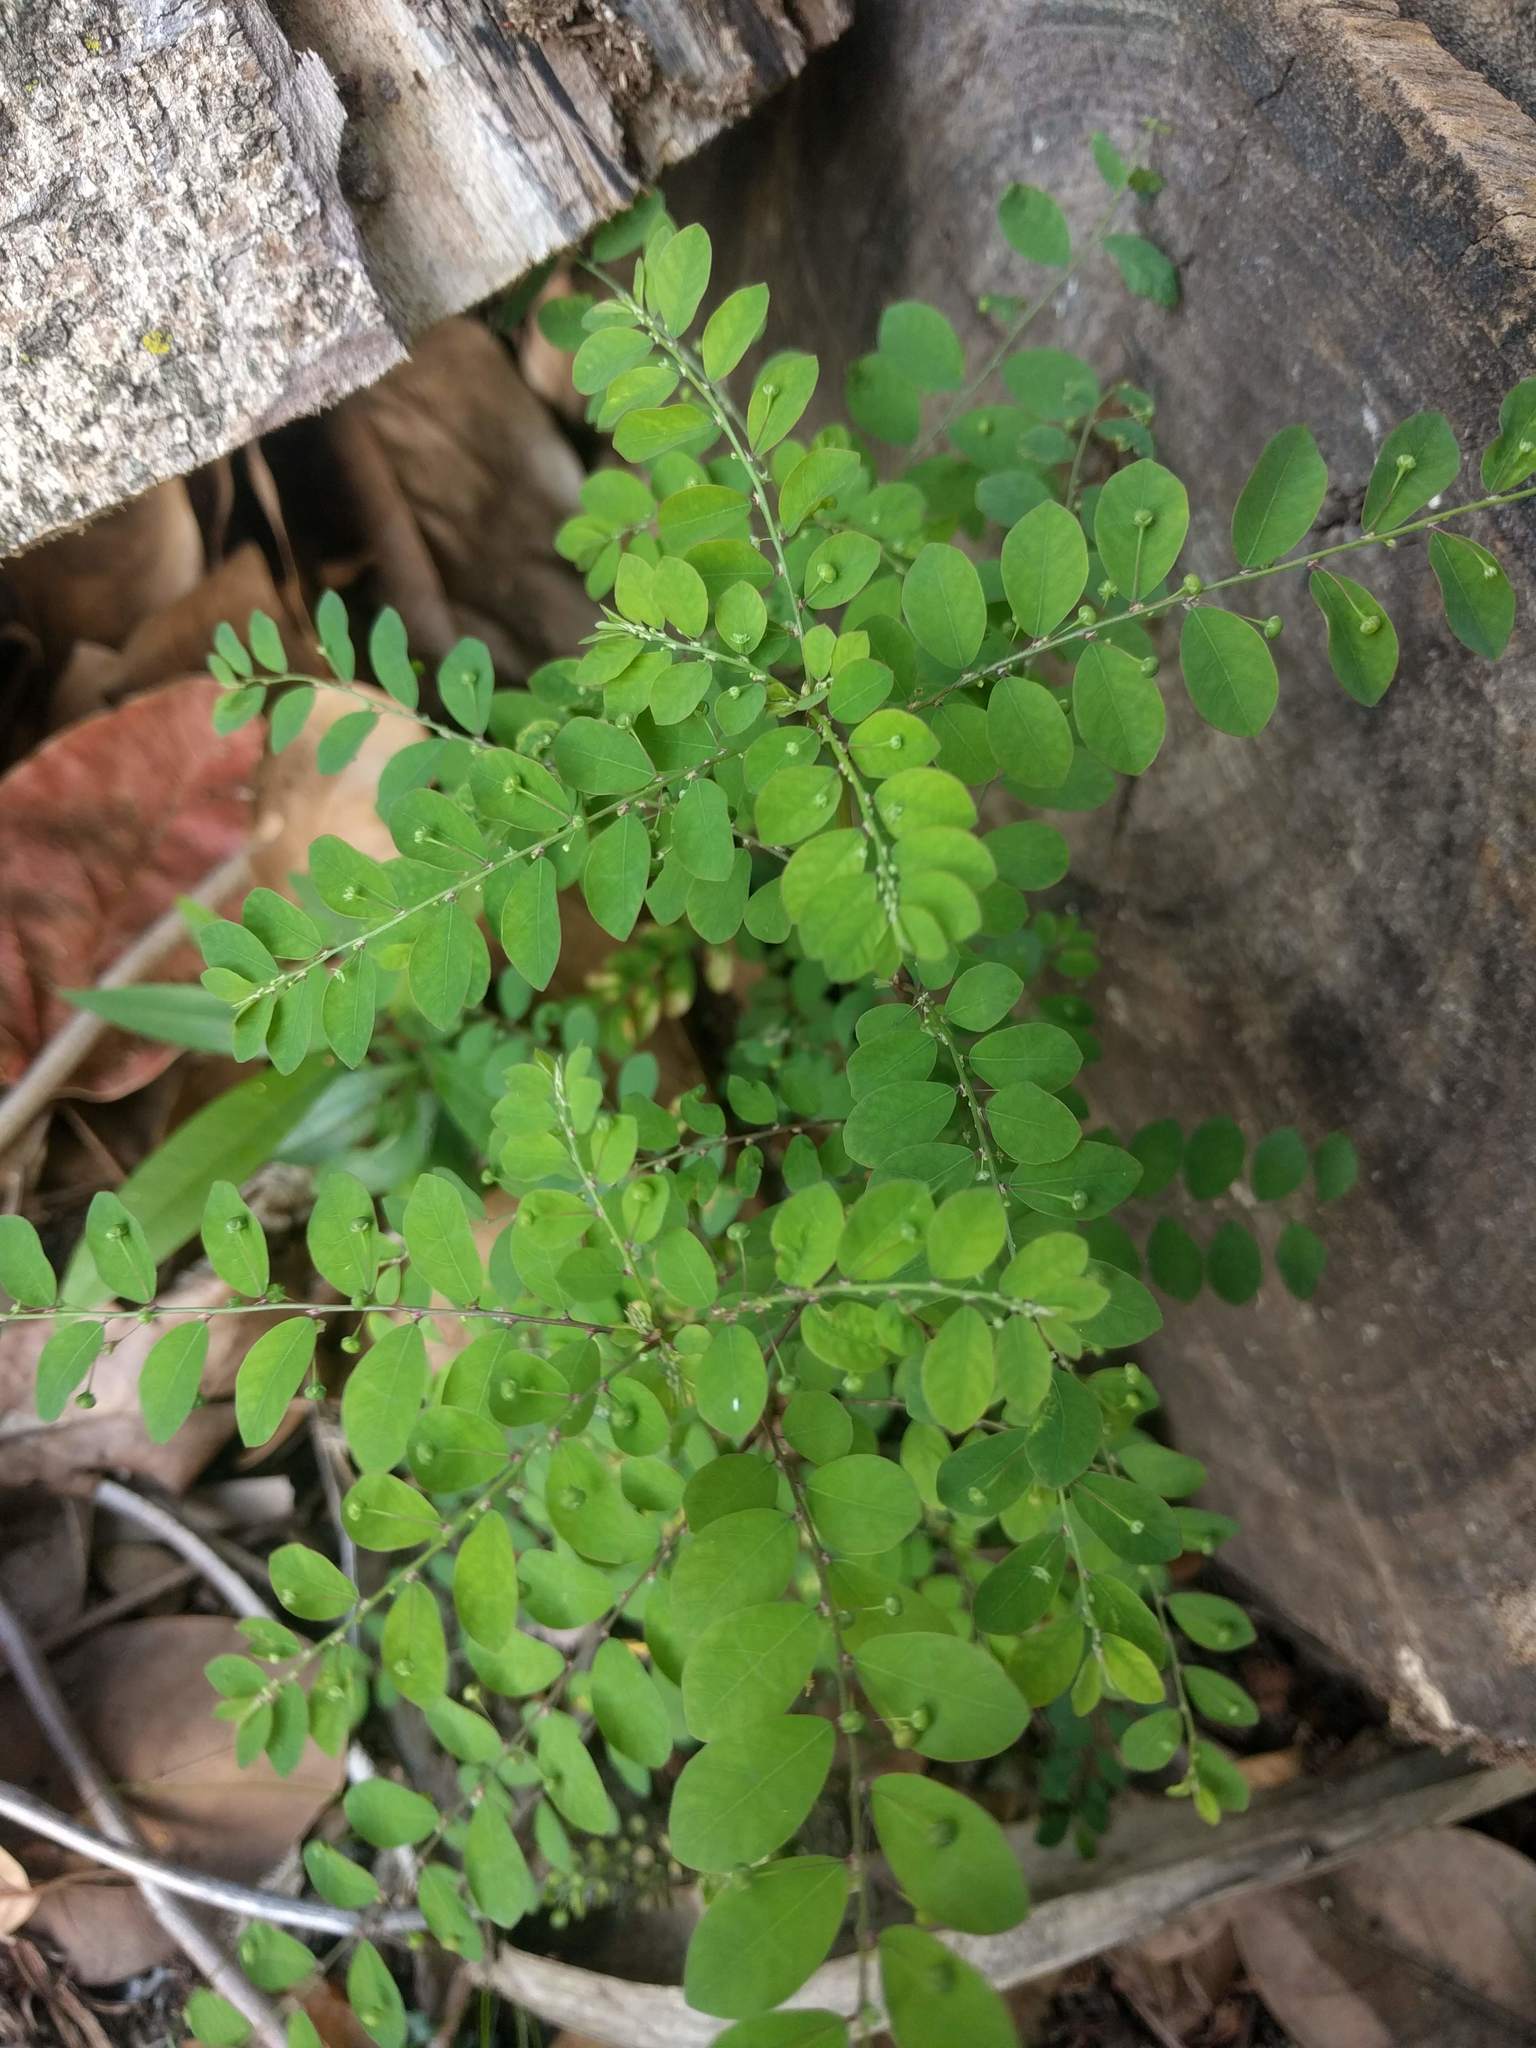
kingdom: Plantae
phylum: Tracheophyta
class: Magnoliopsida
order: Malpighiales
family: Phyllanthaceae
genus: Phyllanthus
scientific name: Phyllanthus tenellus
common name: Mascarene island leaf-flower
